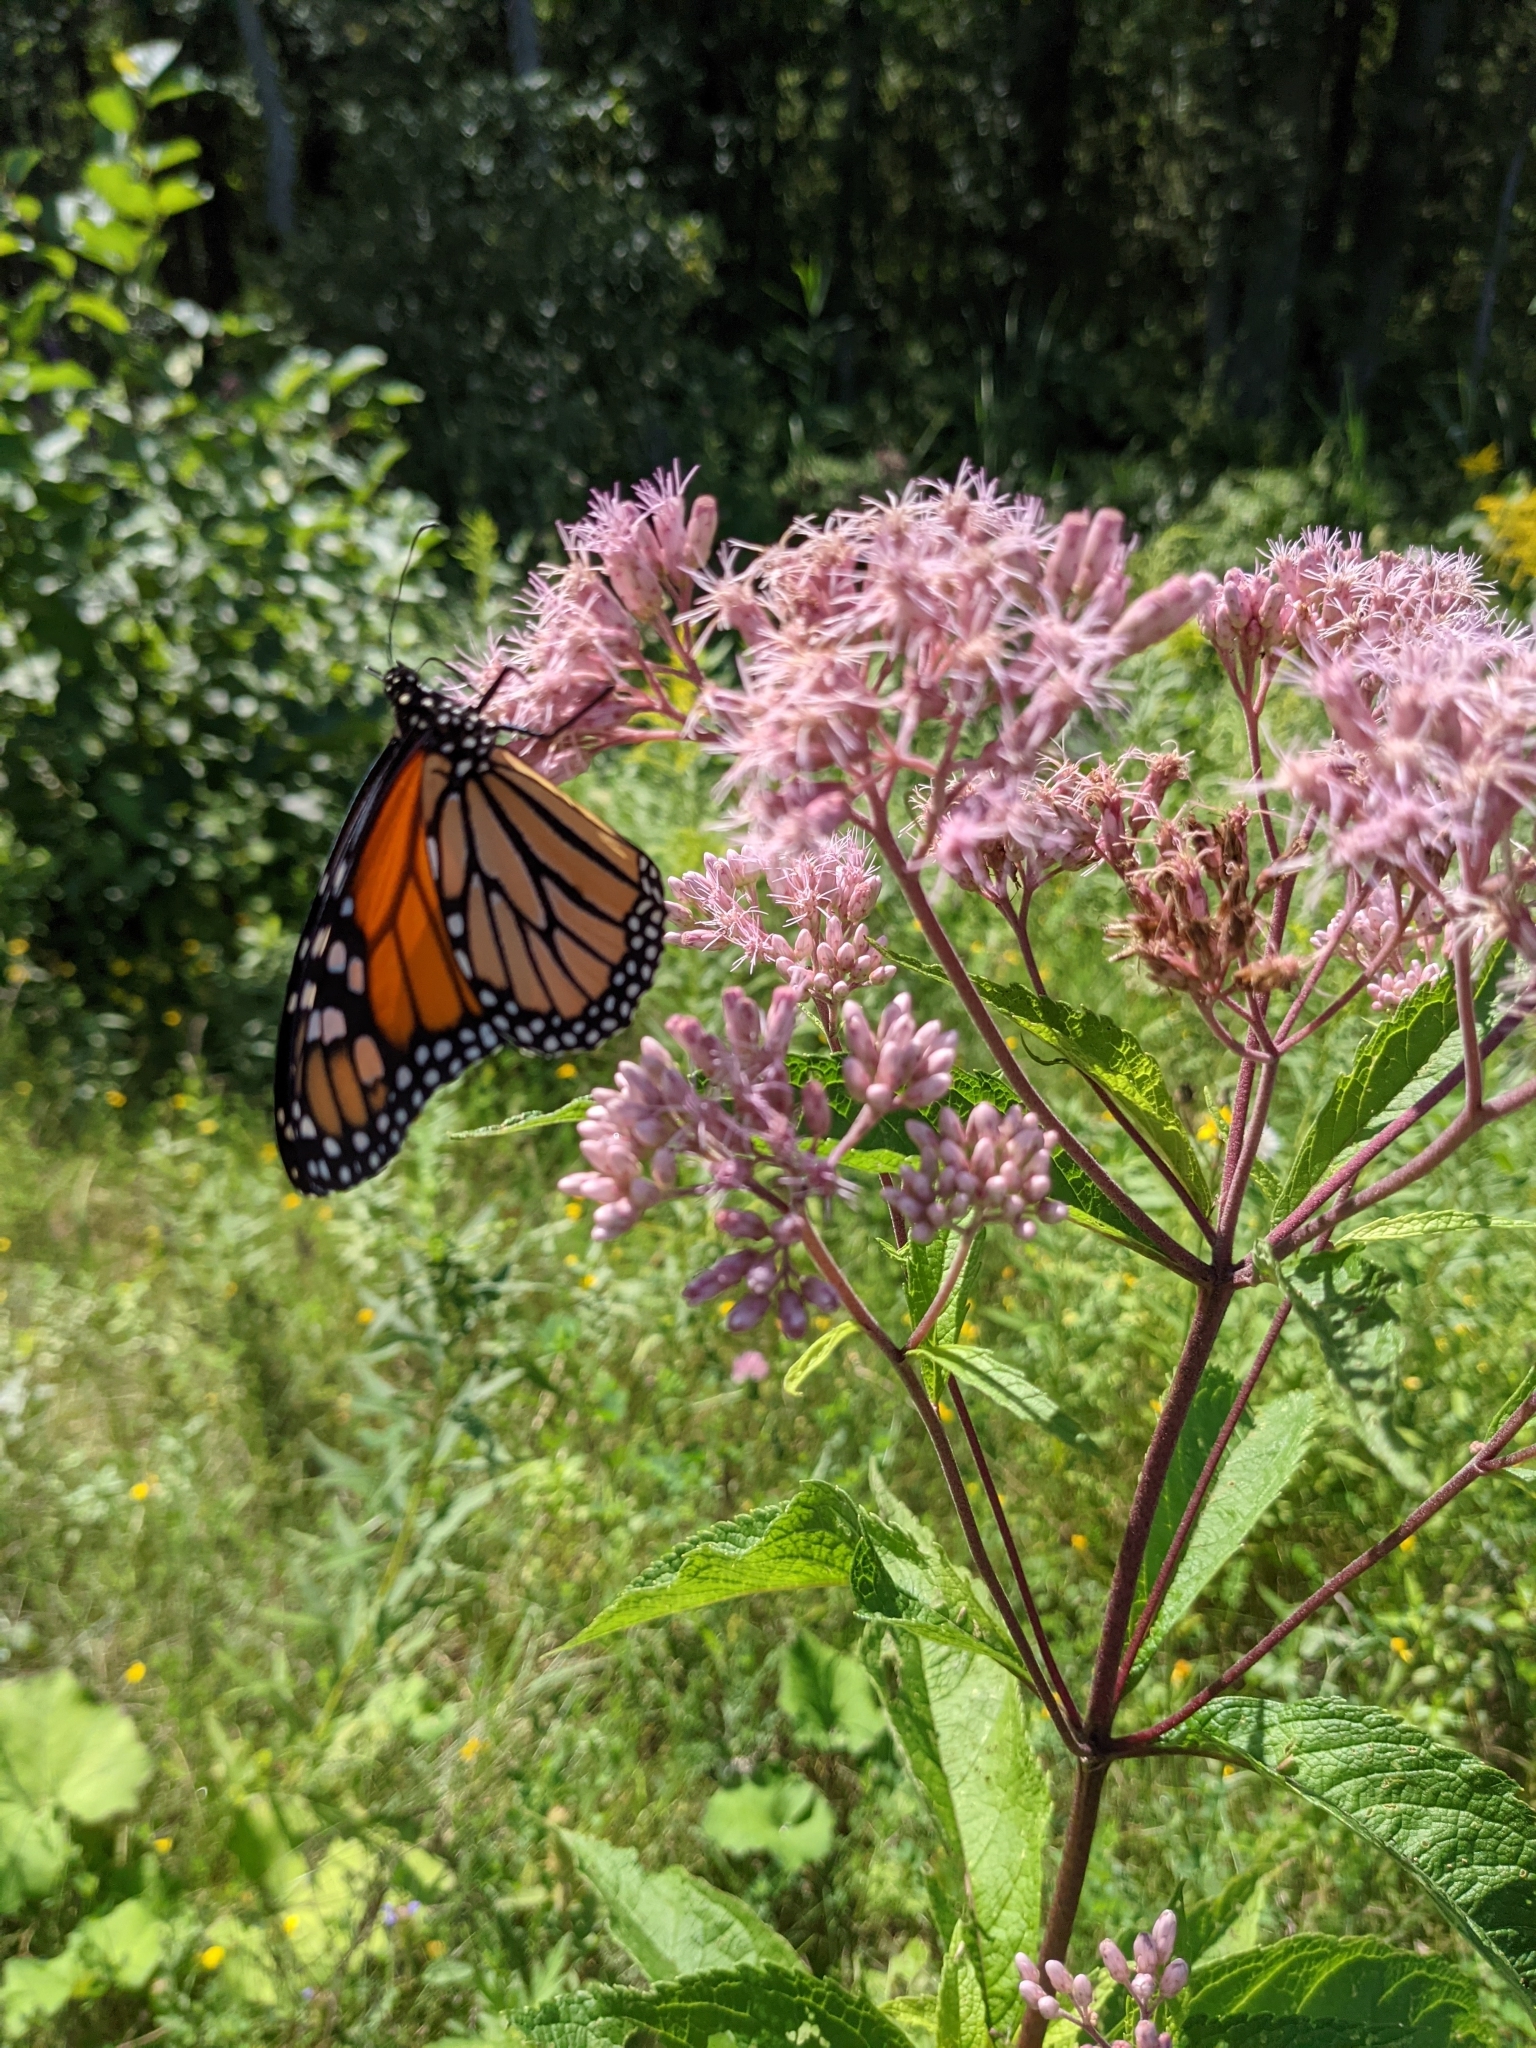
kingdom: Animalia
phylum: Arthropoda
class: Insecta
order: Lepidoptera
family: Nymphalidae
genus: Danaus
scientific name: Danaus plexippus
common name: Monarch
